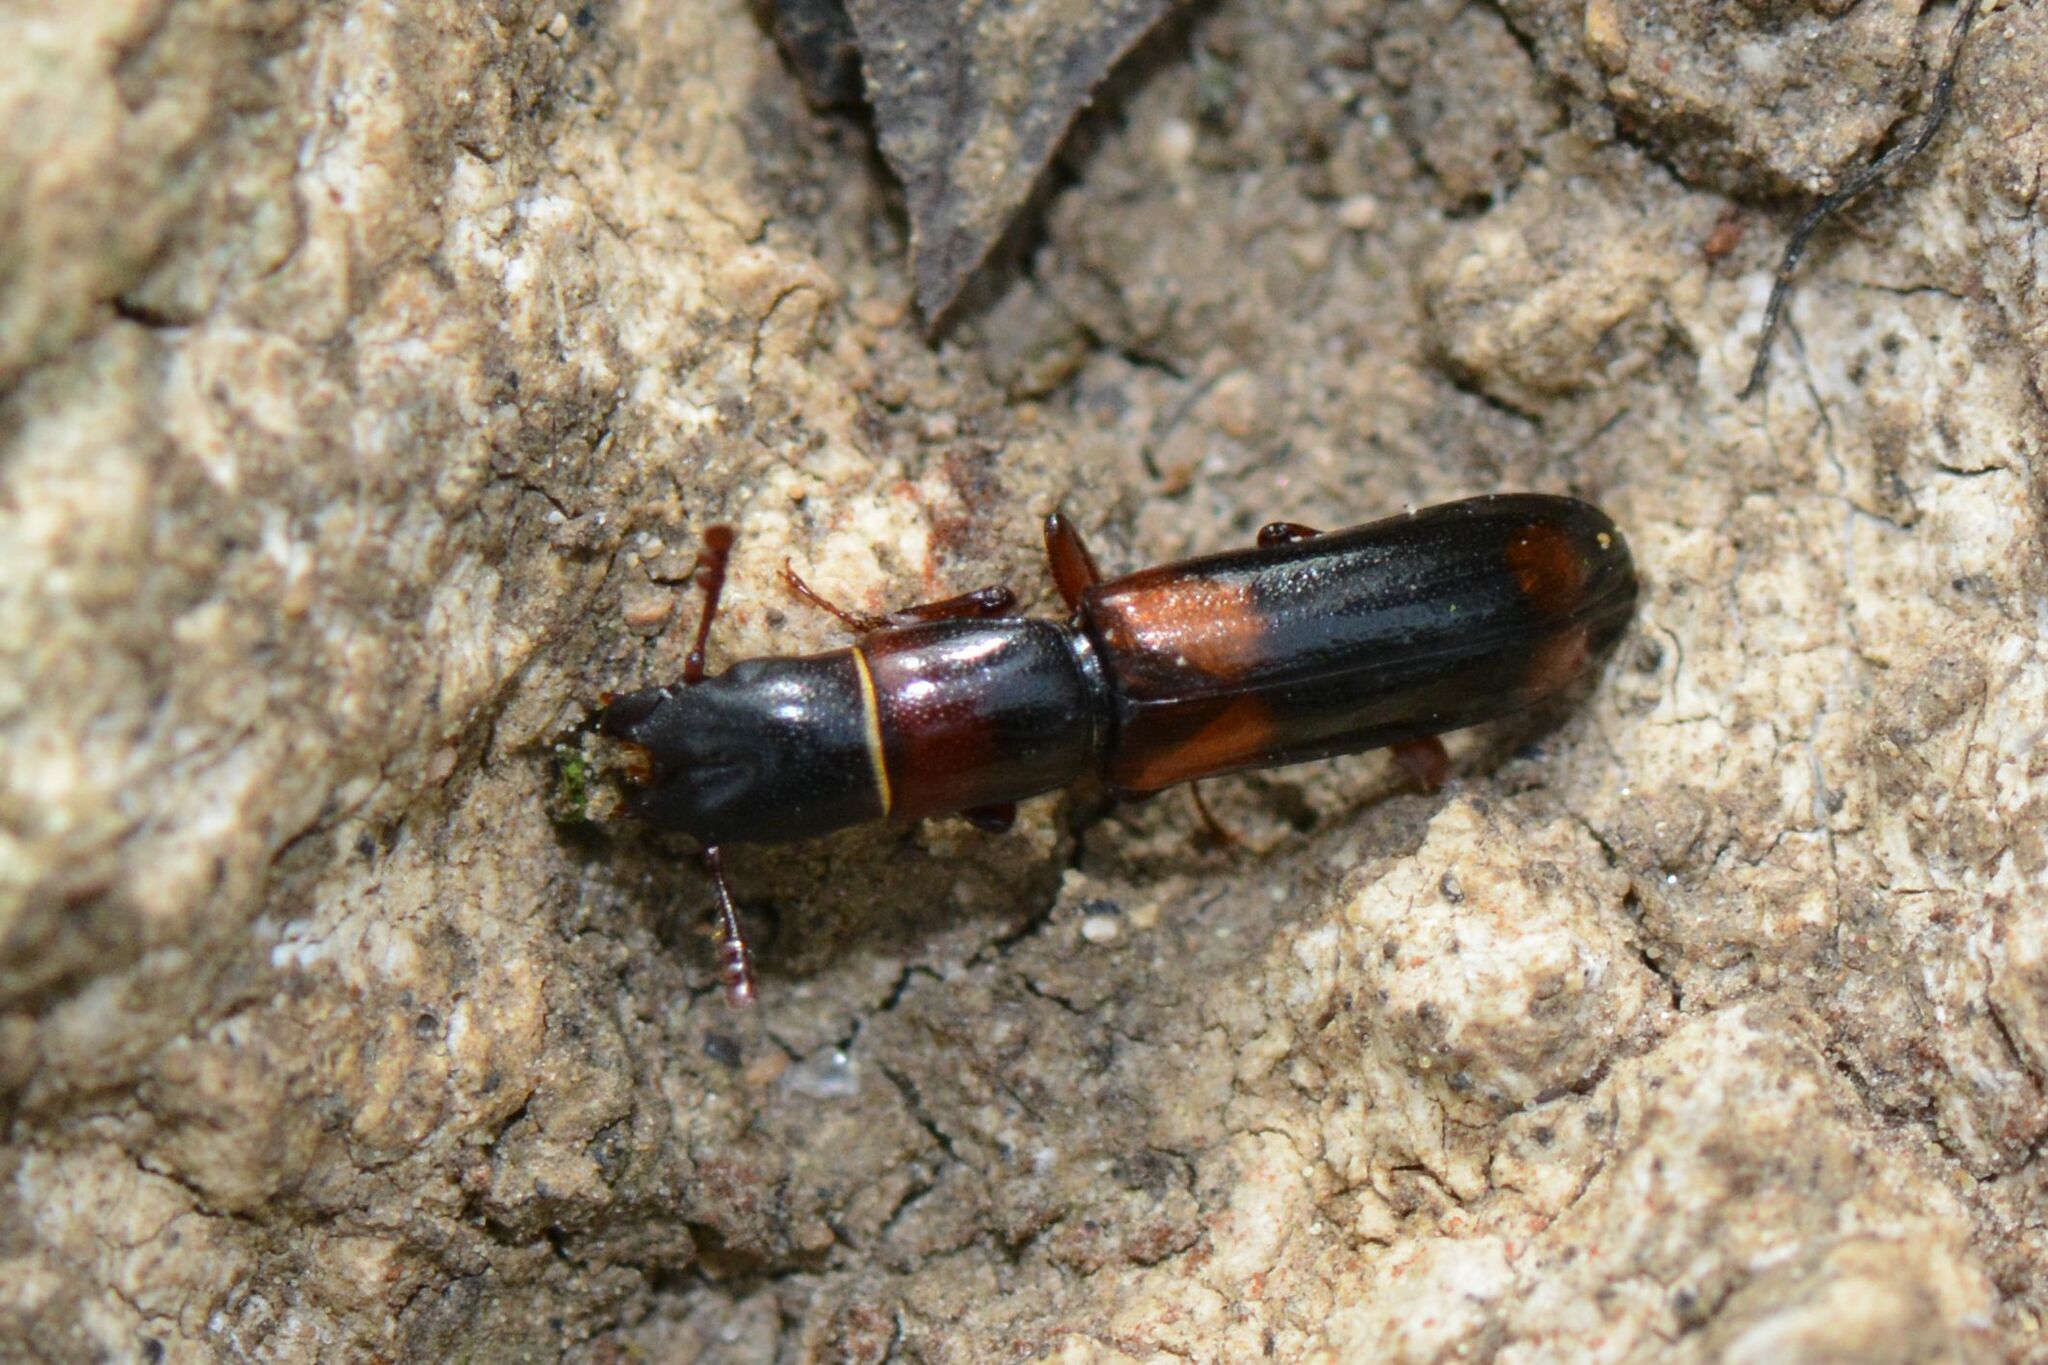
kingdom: Animalia
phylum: Arthropoda
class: Insecta
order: Coleoptera
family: Trogossitidae
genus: Nemozoma
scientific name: Nemozoma caucasicum
